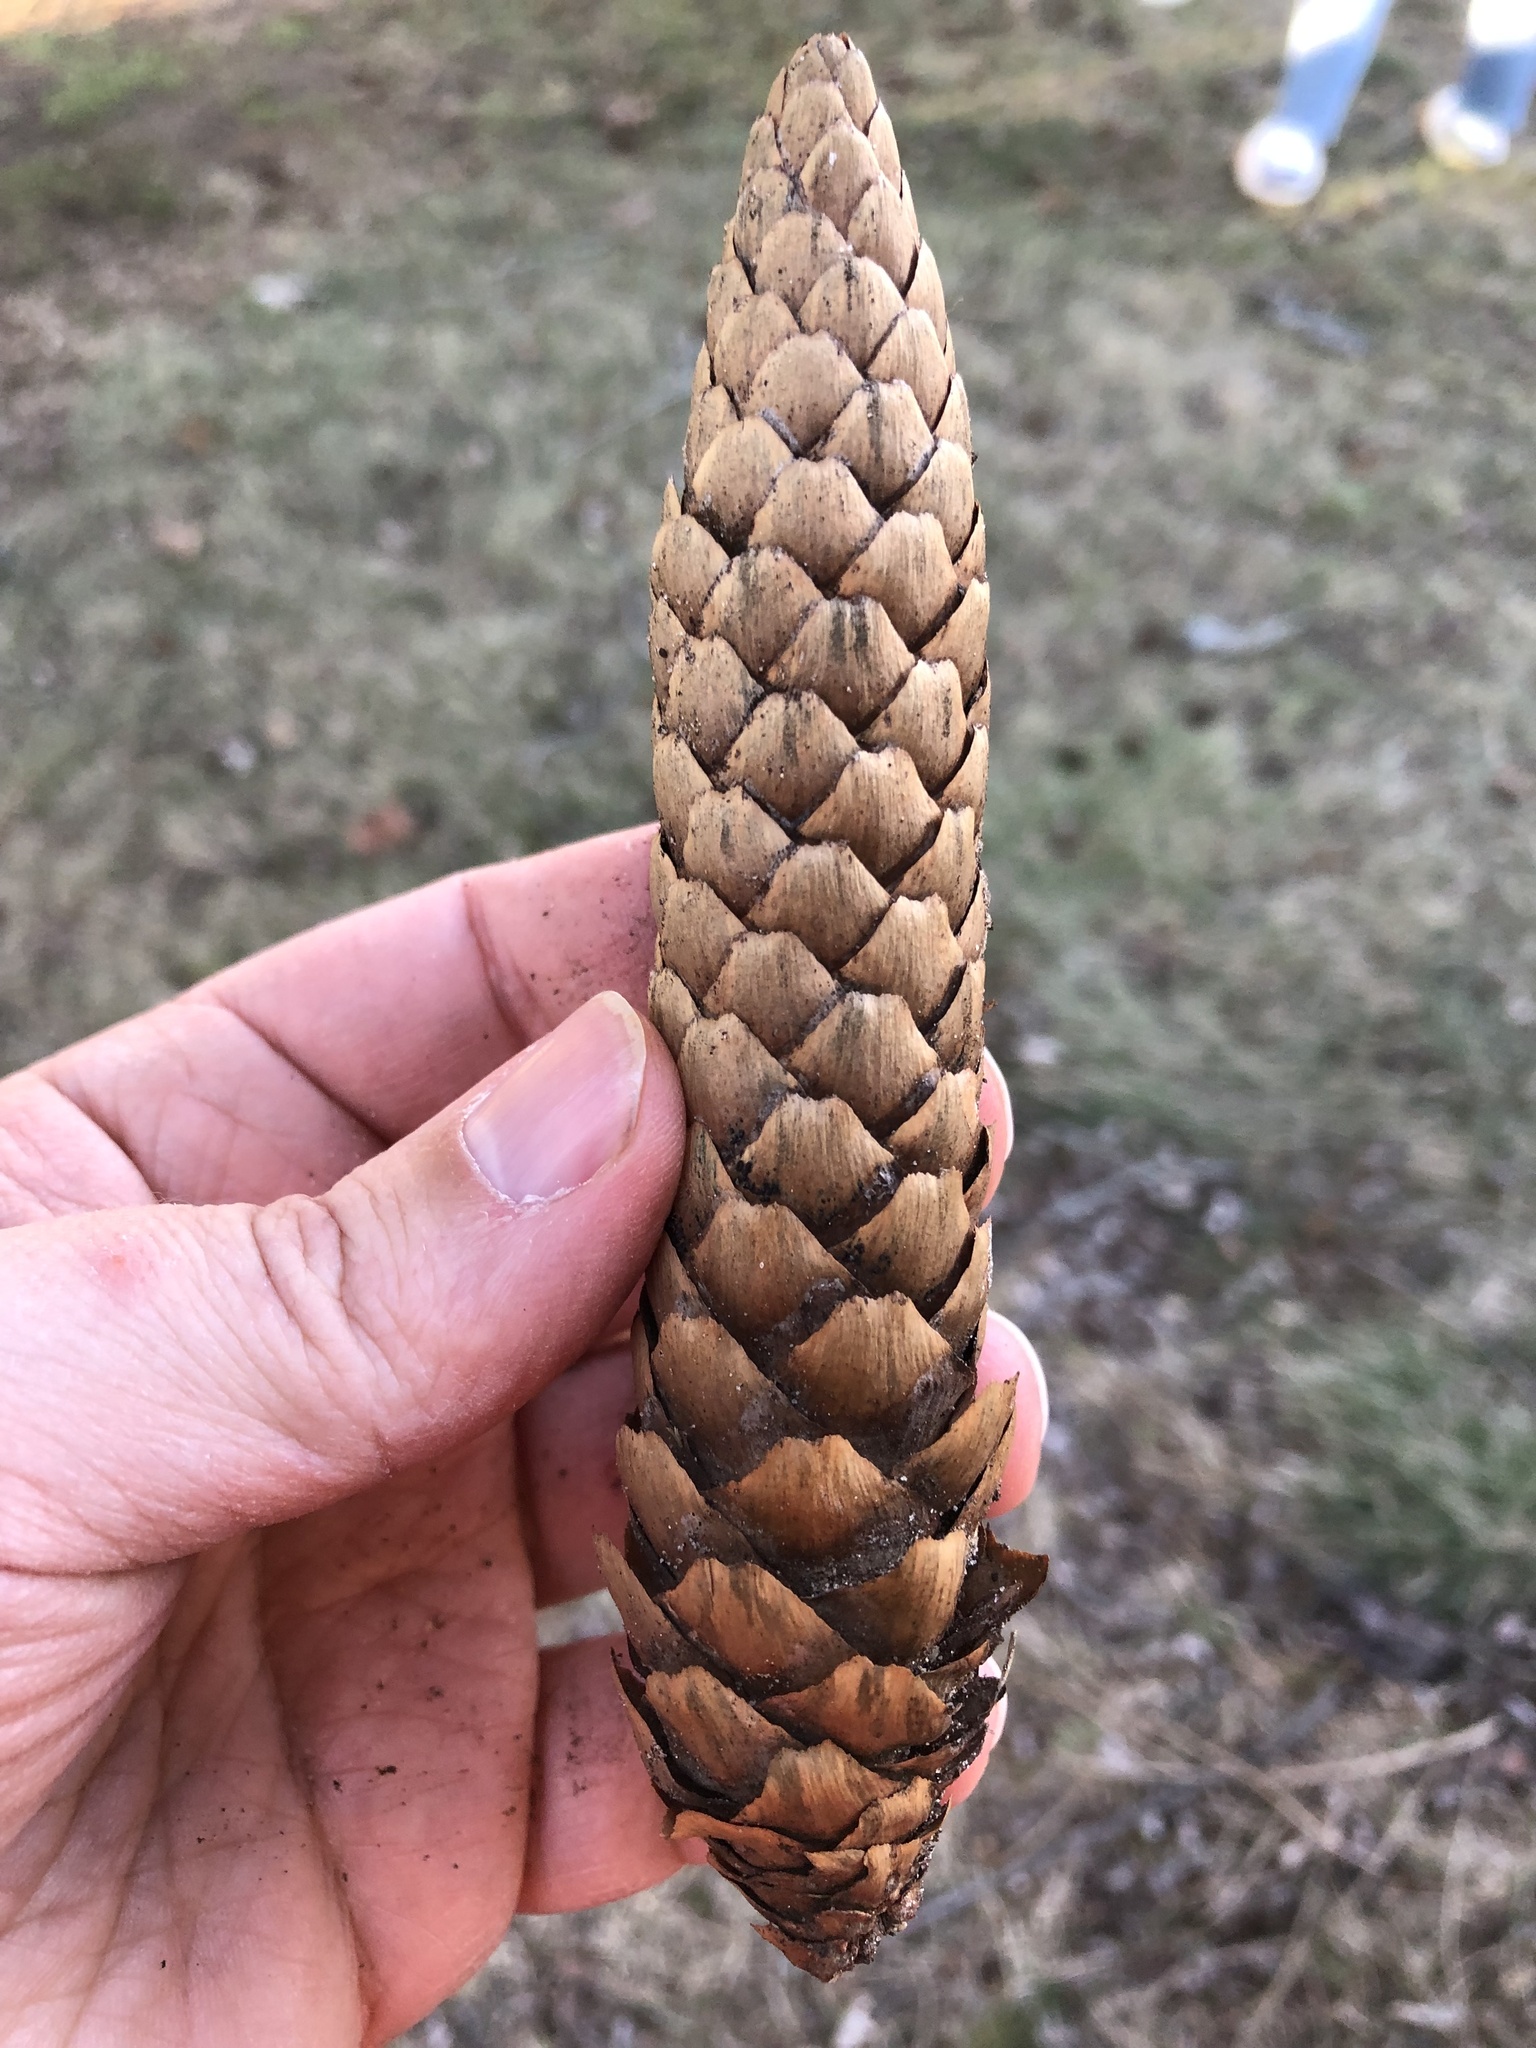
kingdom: Plantae
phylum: Tracheophyta
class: Pinopsida
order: Pinales
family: Pinaceae
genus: Picea
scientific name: Picea abies
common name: Norway spruce
